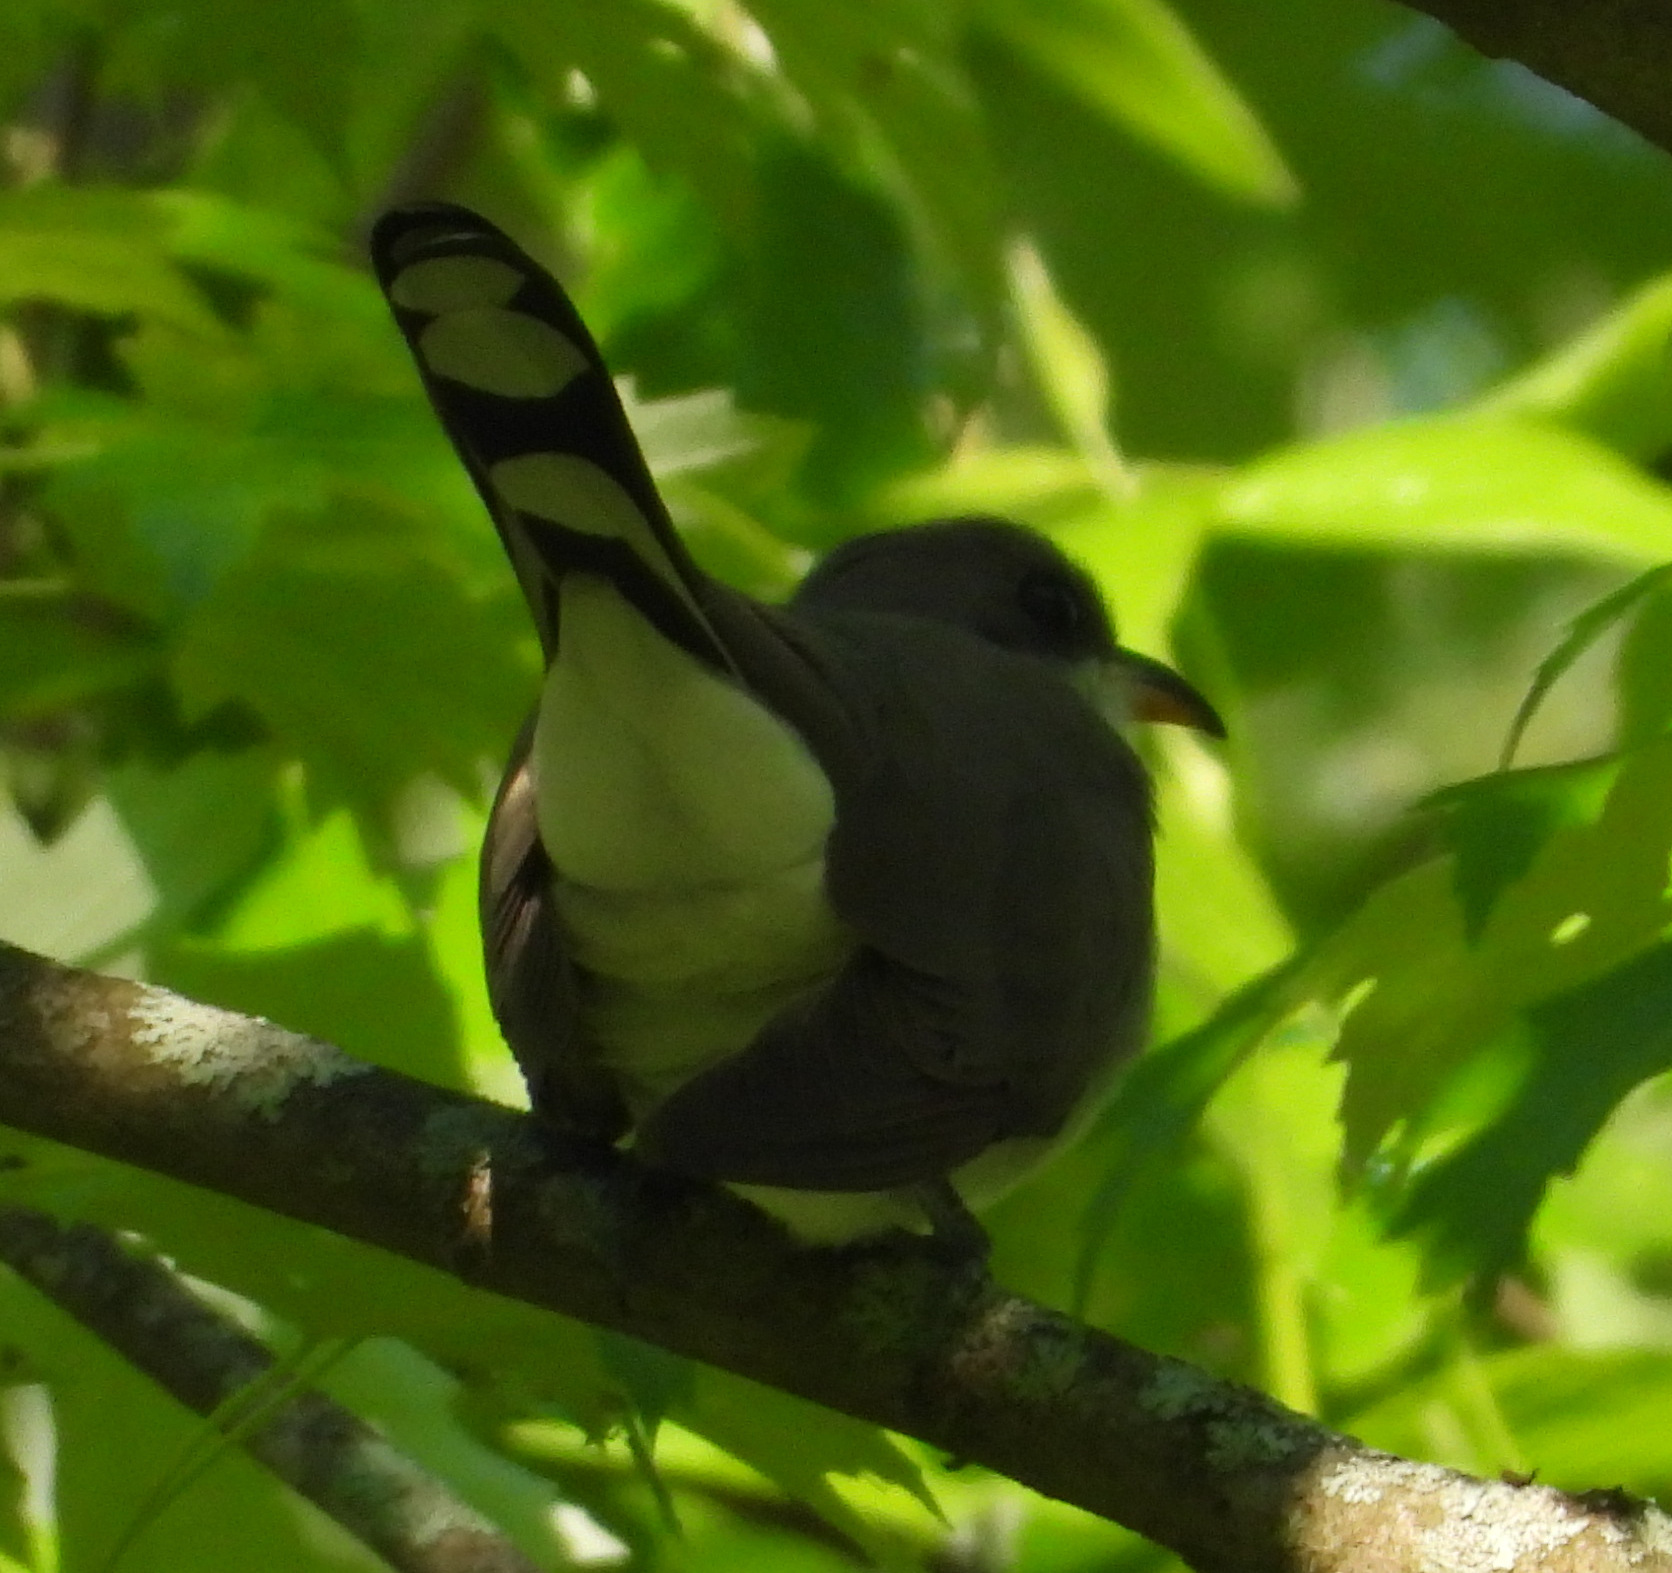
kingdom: Animalia
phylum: Chordata
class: Aves
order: Cuculiformes
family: Cuculidae
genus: Coccyzus
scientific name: Coccyzus americanus
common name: Yellow-billed cuckoo
